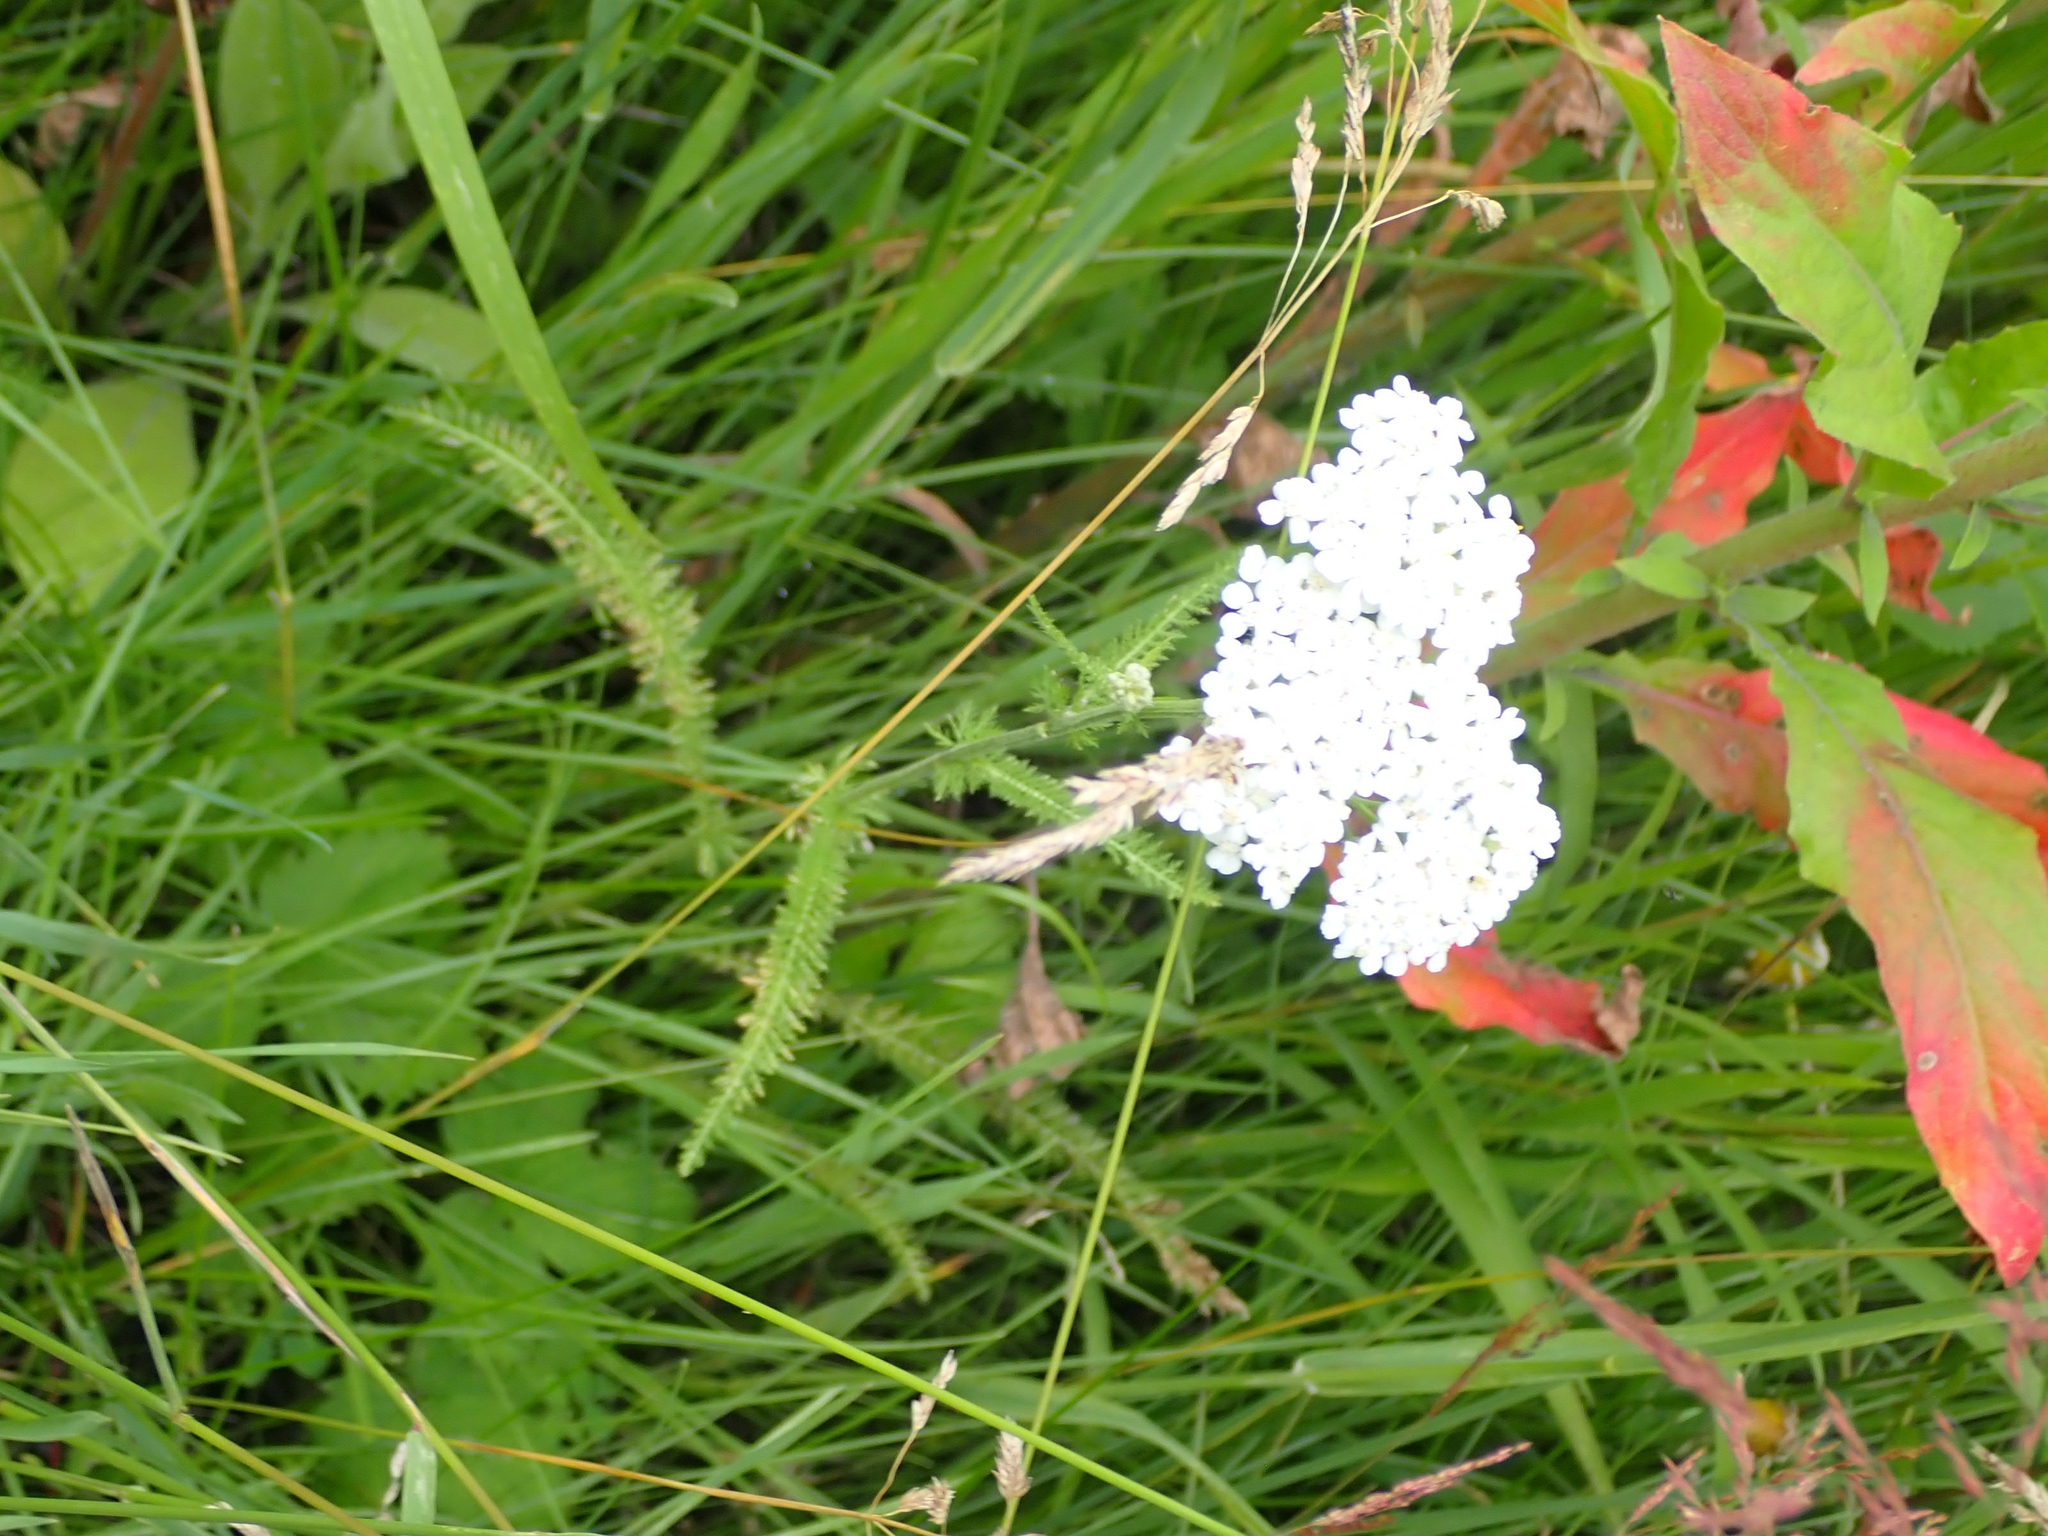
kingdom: Plantae
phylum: Tracheophyta
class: Magnoliopsida
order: Asterales
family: Asteraceae
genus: Achillea
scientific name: Achillea millefolium
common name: Yarrow
